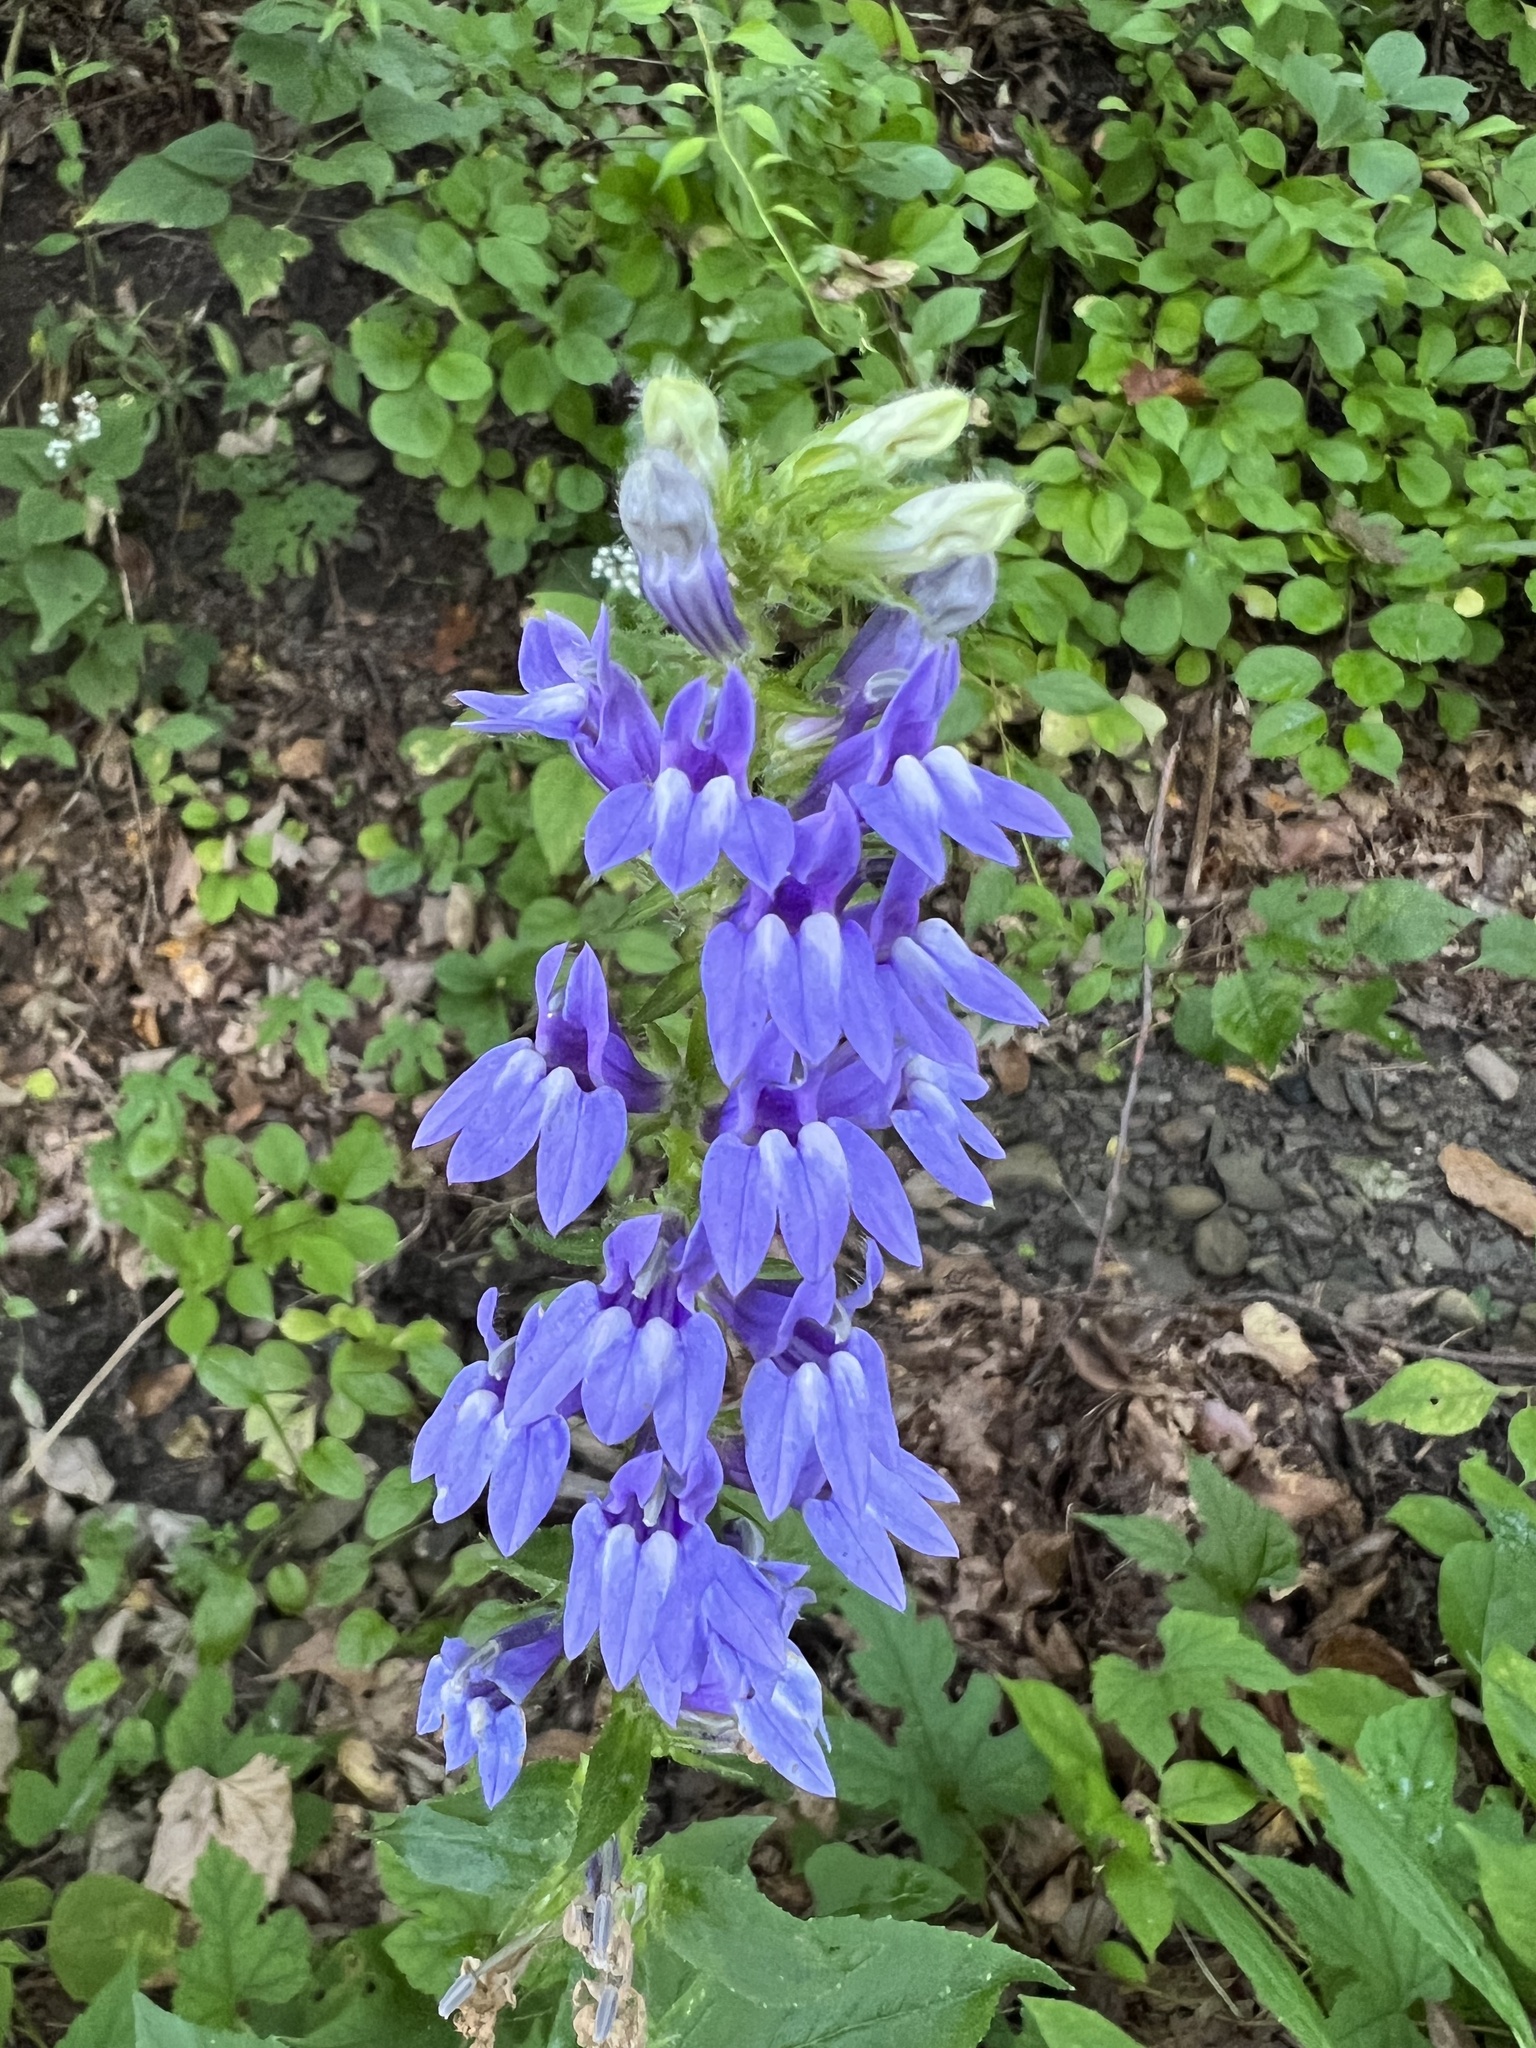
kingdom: Plantae
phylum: Tracheophyta
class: Magnoliopsida
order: Asterales
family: Campanulaceae
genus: Lobelia
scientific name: Lobelia siphilitica
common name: Great lobelia
